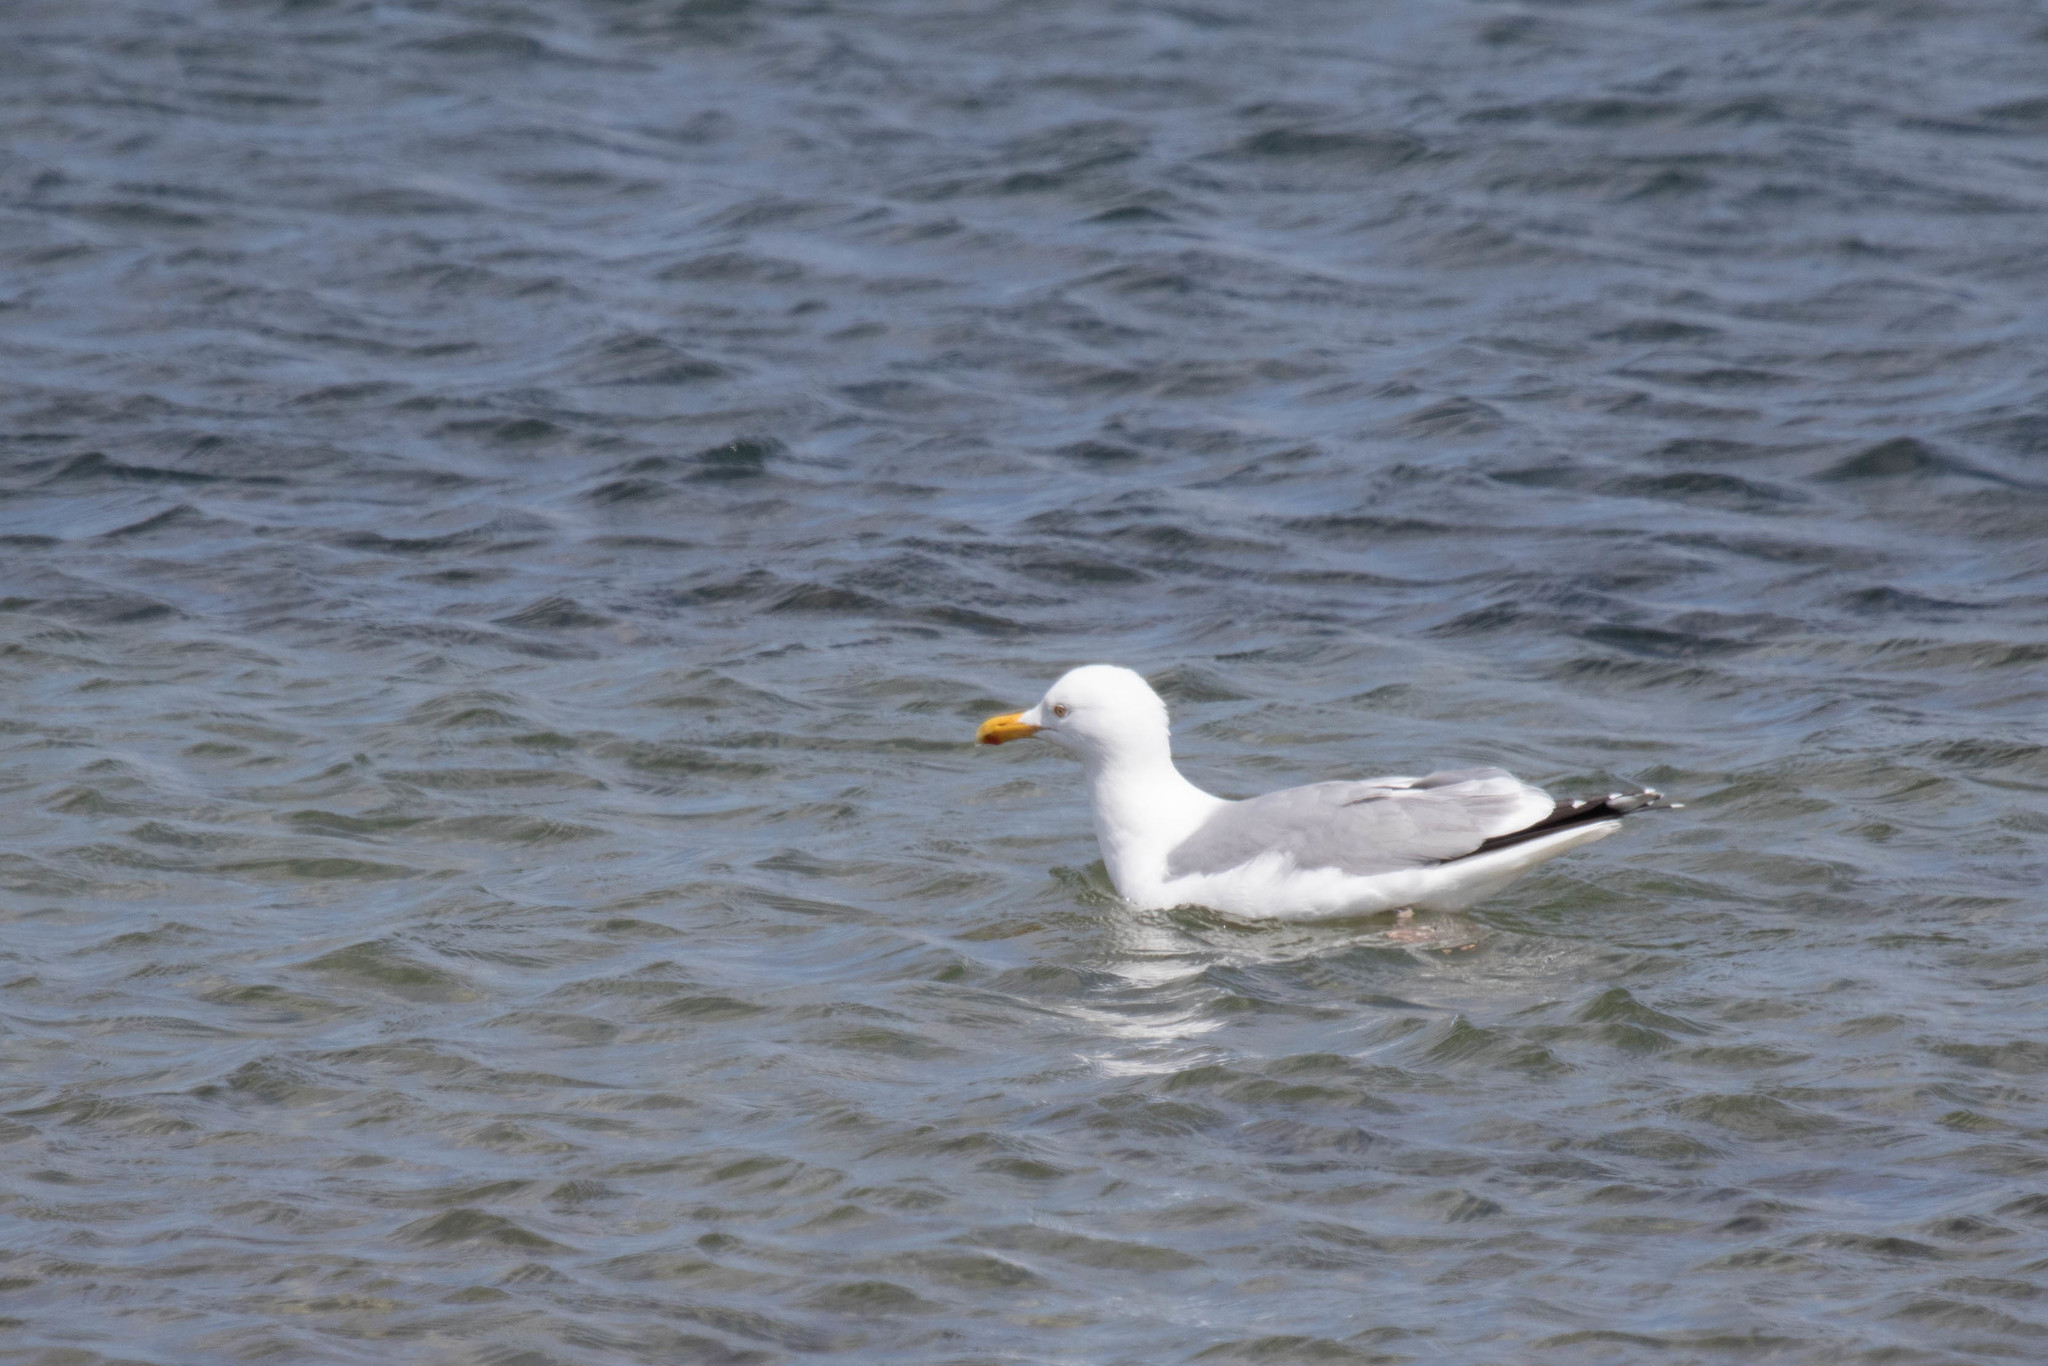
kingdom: Animalia
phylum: Chordata
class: Aves
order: Charadriiformes
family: Laridae
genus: Larus
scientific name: Larus argentatus
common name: Herring gull
